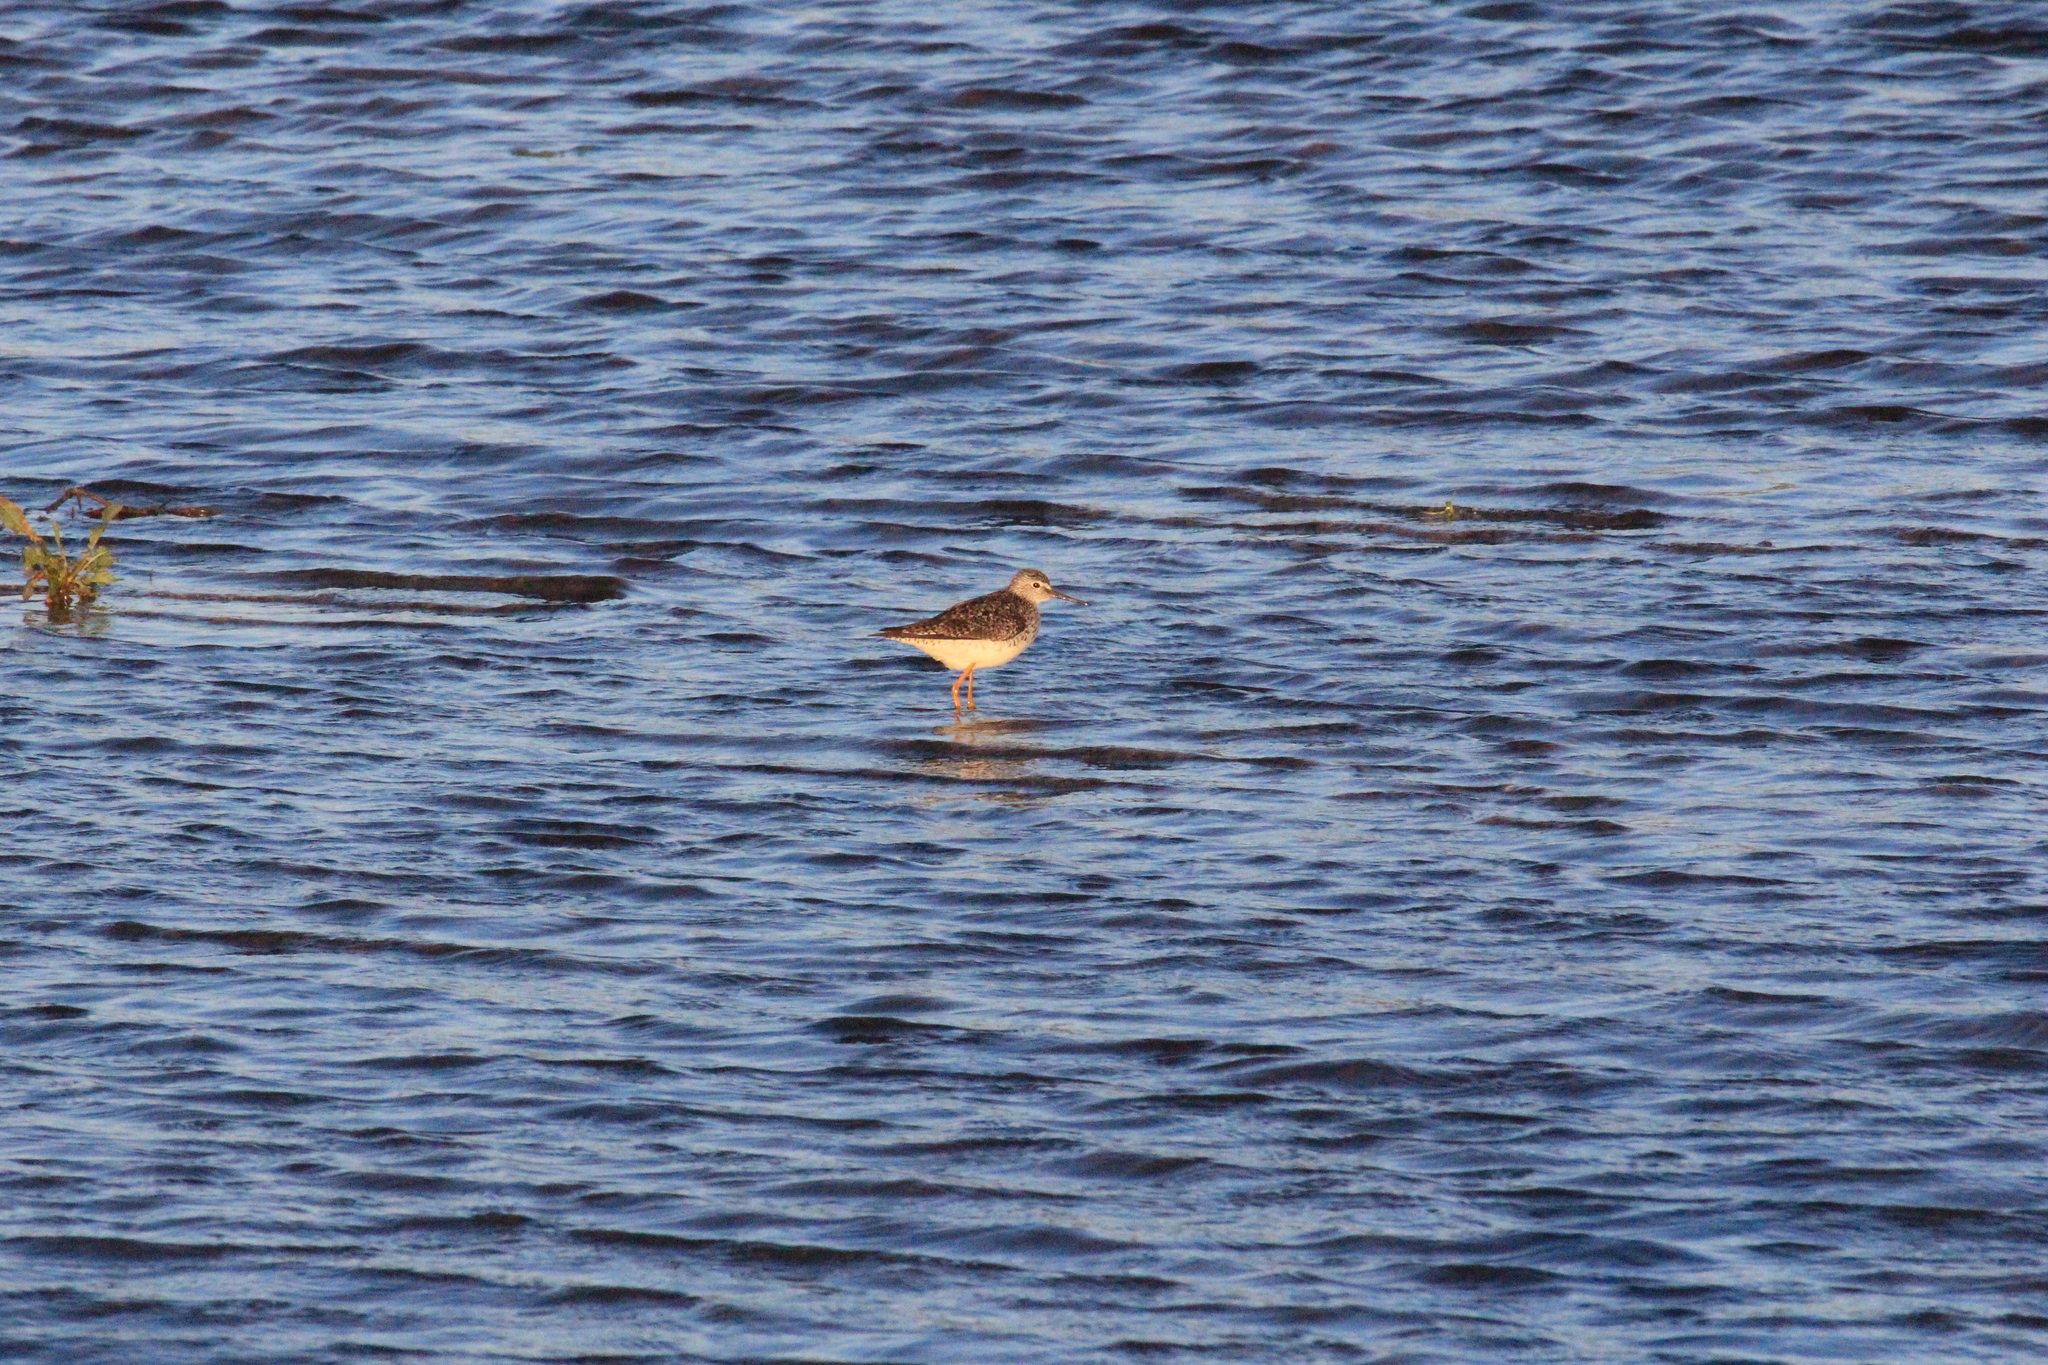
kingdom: Animalia
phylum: Chordata
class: Aves
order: Charadriiformes
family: Scolopacidae
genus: Tringa
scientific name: Tringa flavipes
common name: Lesser yellowlegs
